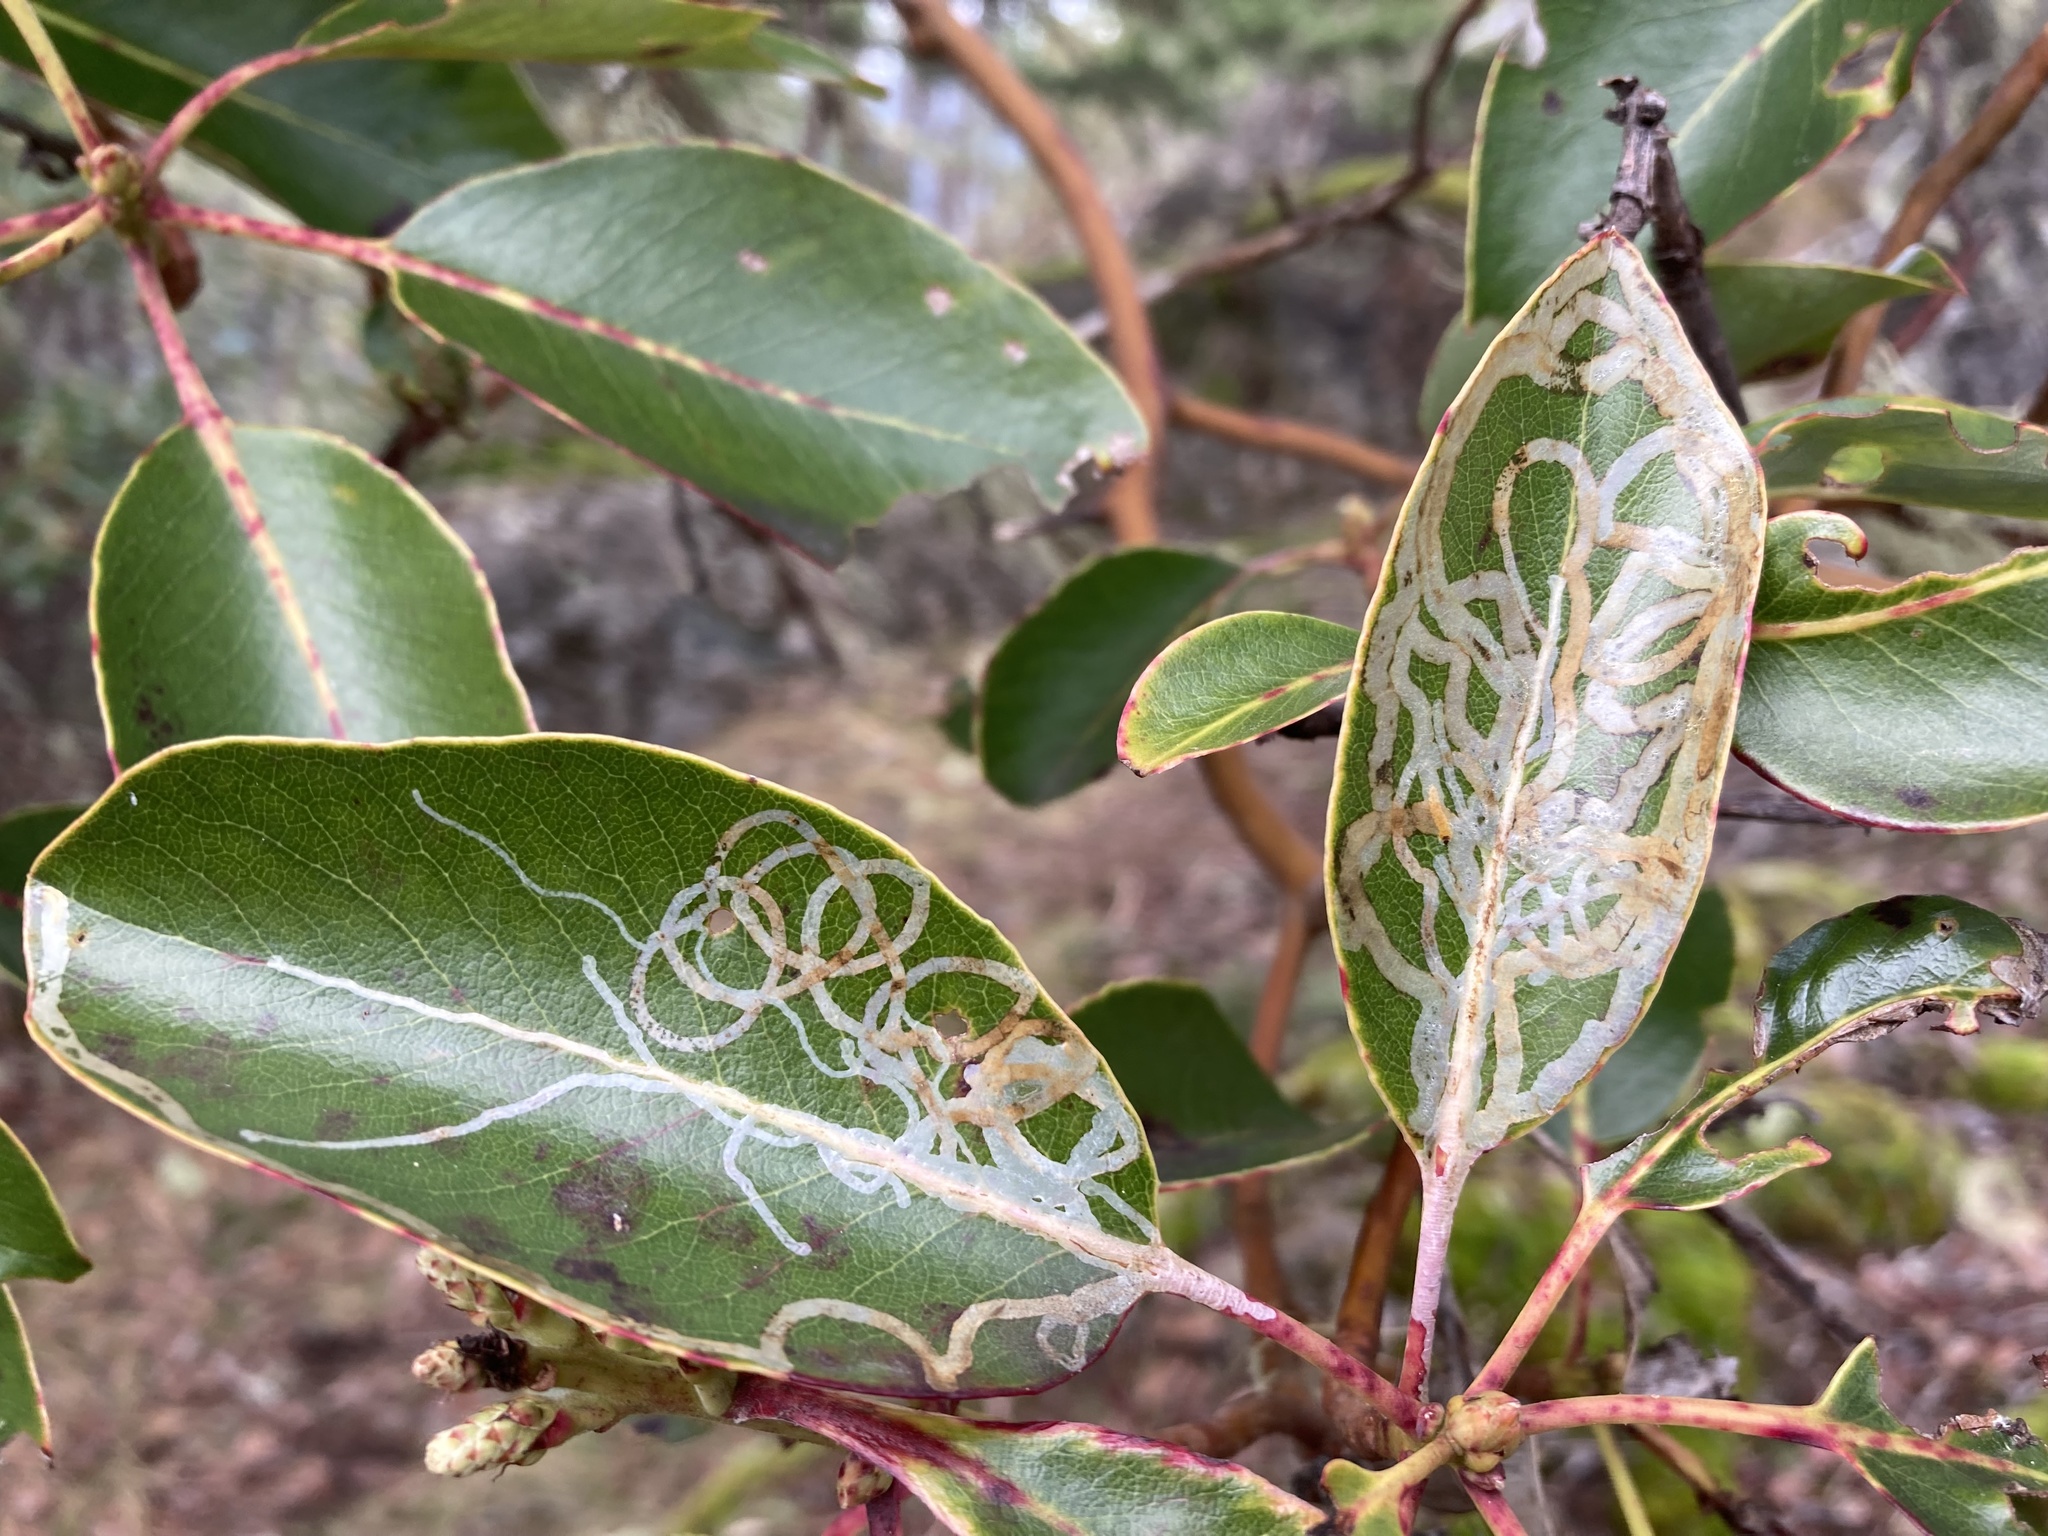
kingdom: Animalia
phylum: Arthropoda
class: Insecta
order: Lepidoptera
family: Gracillariidae
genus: Marmara
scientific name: Marmara arbutiella
